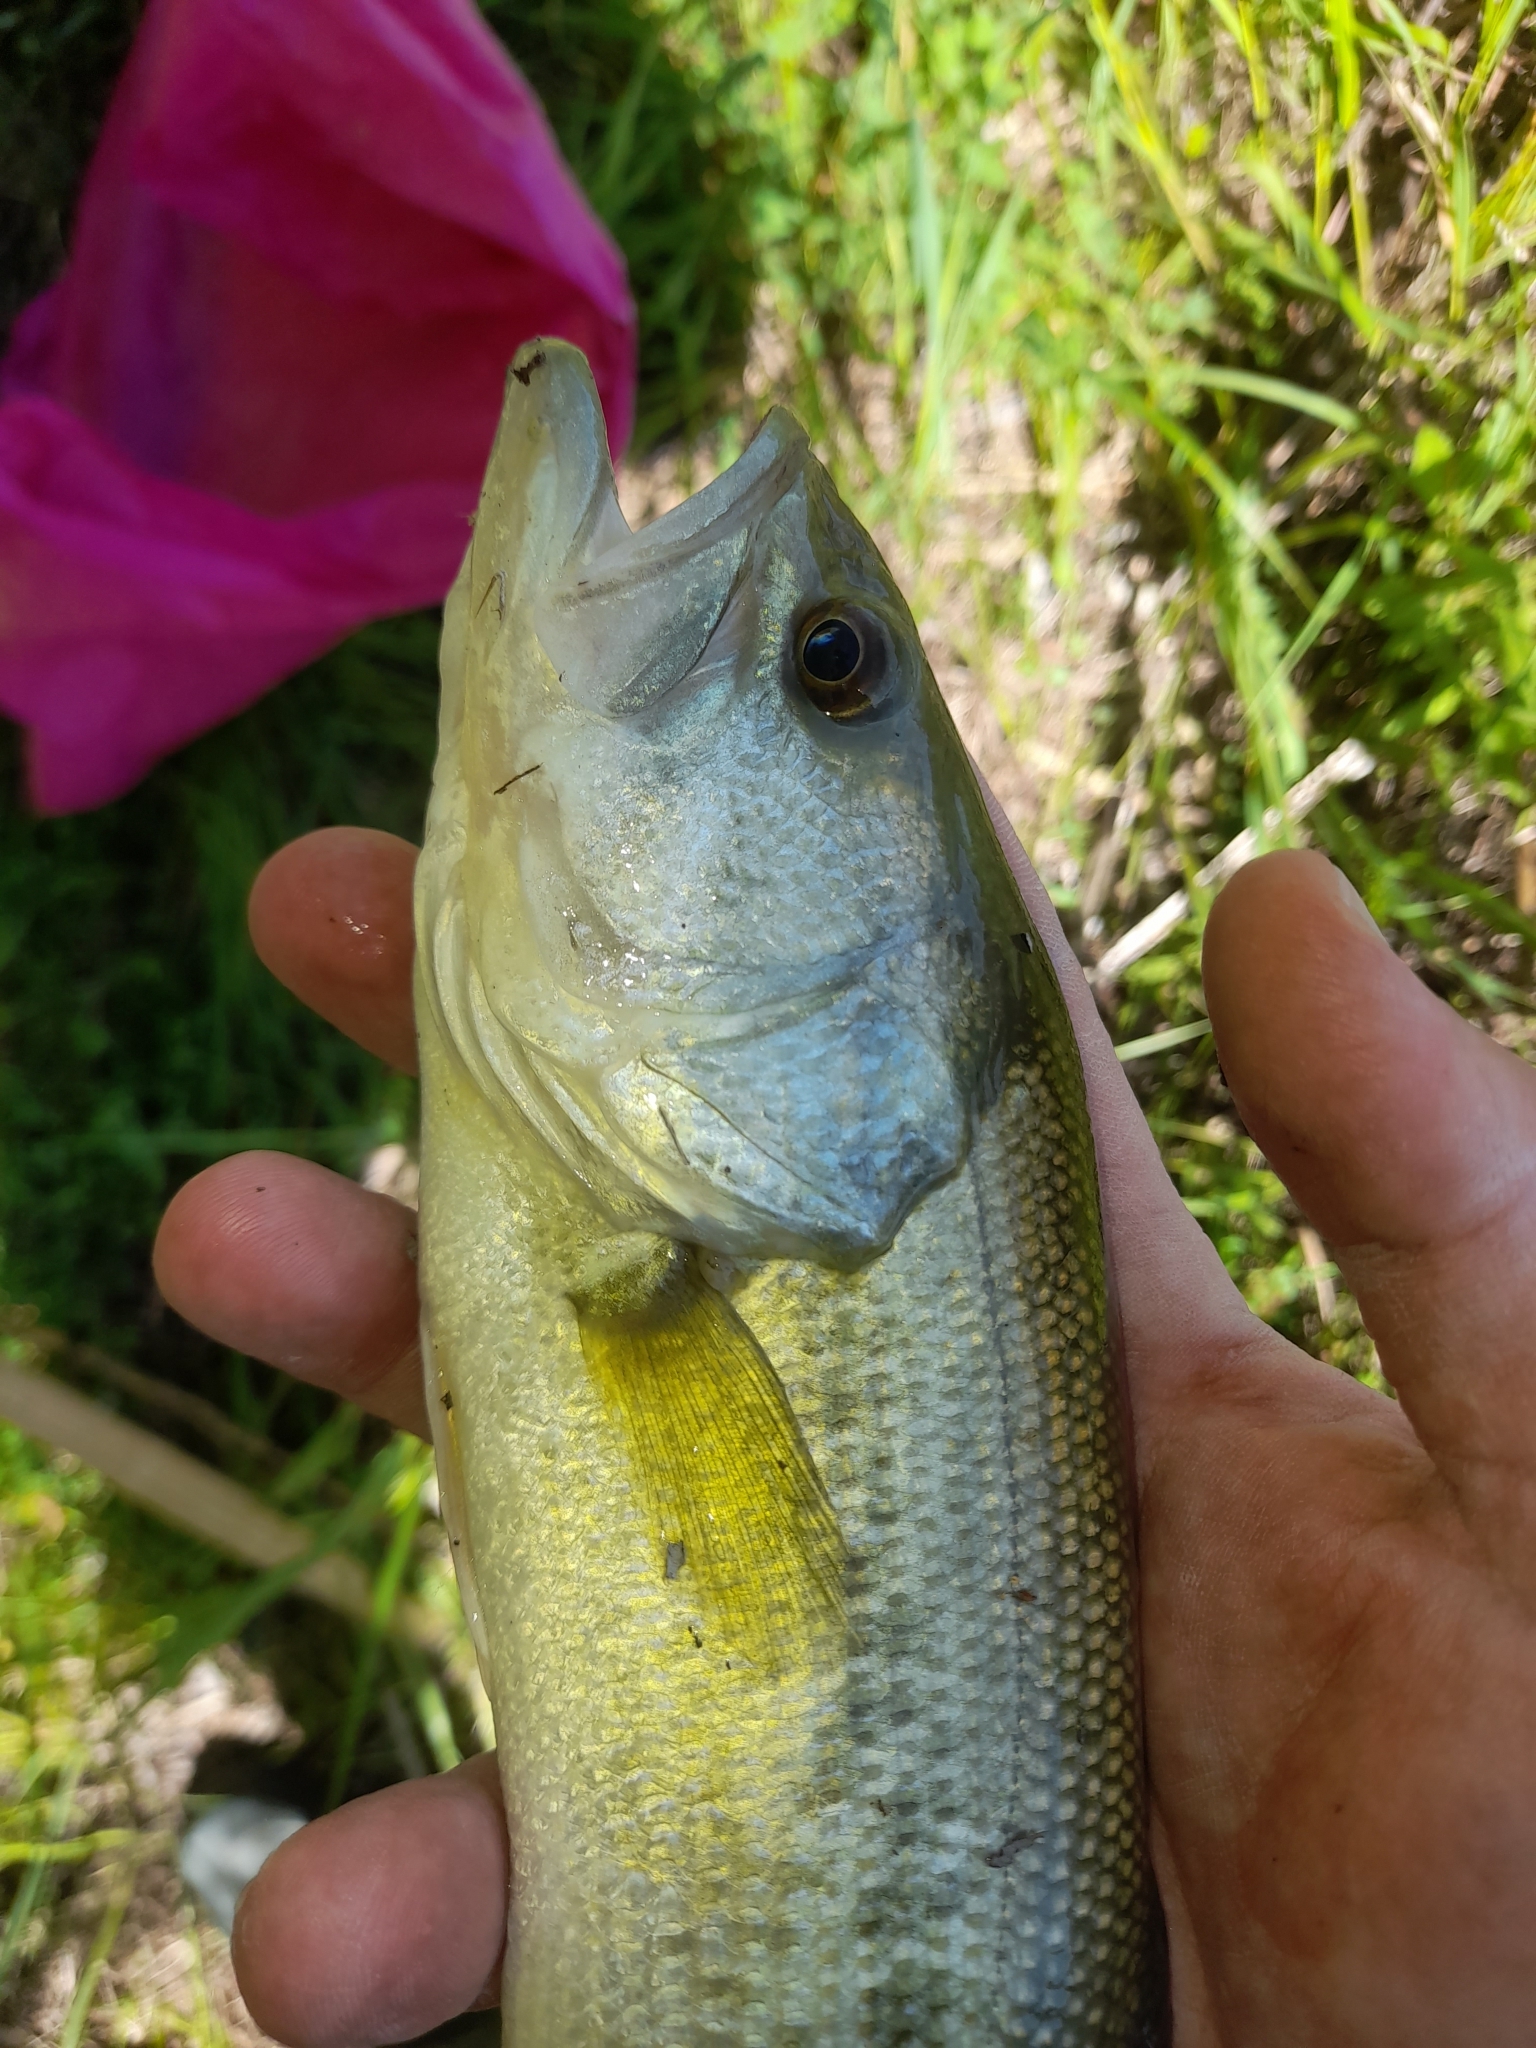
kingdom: Animalia
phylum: Chordata
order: Perciformes
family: Centrarchidae
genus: Micropterus
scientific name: Micropterus
